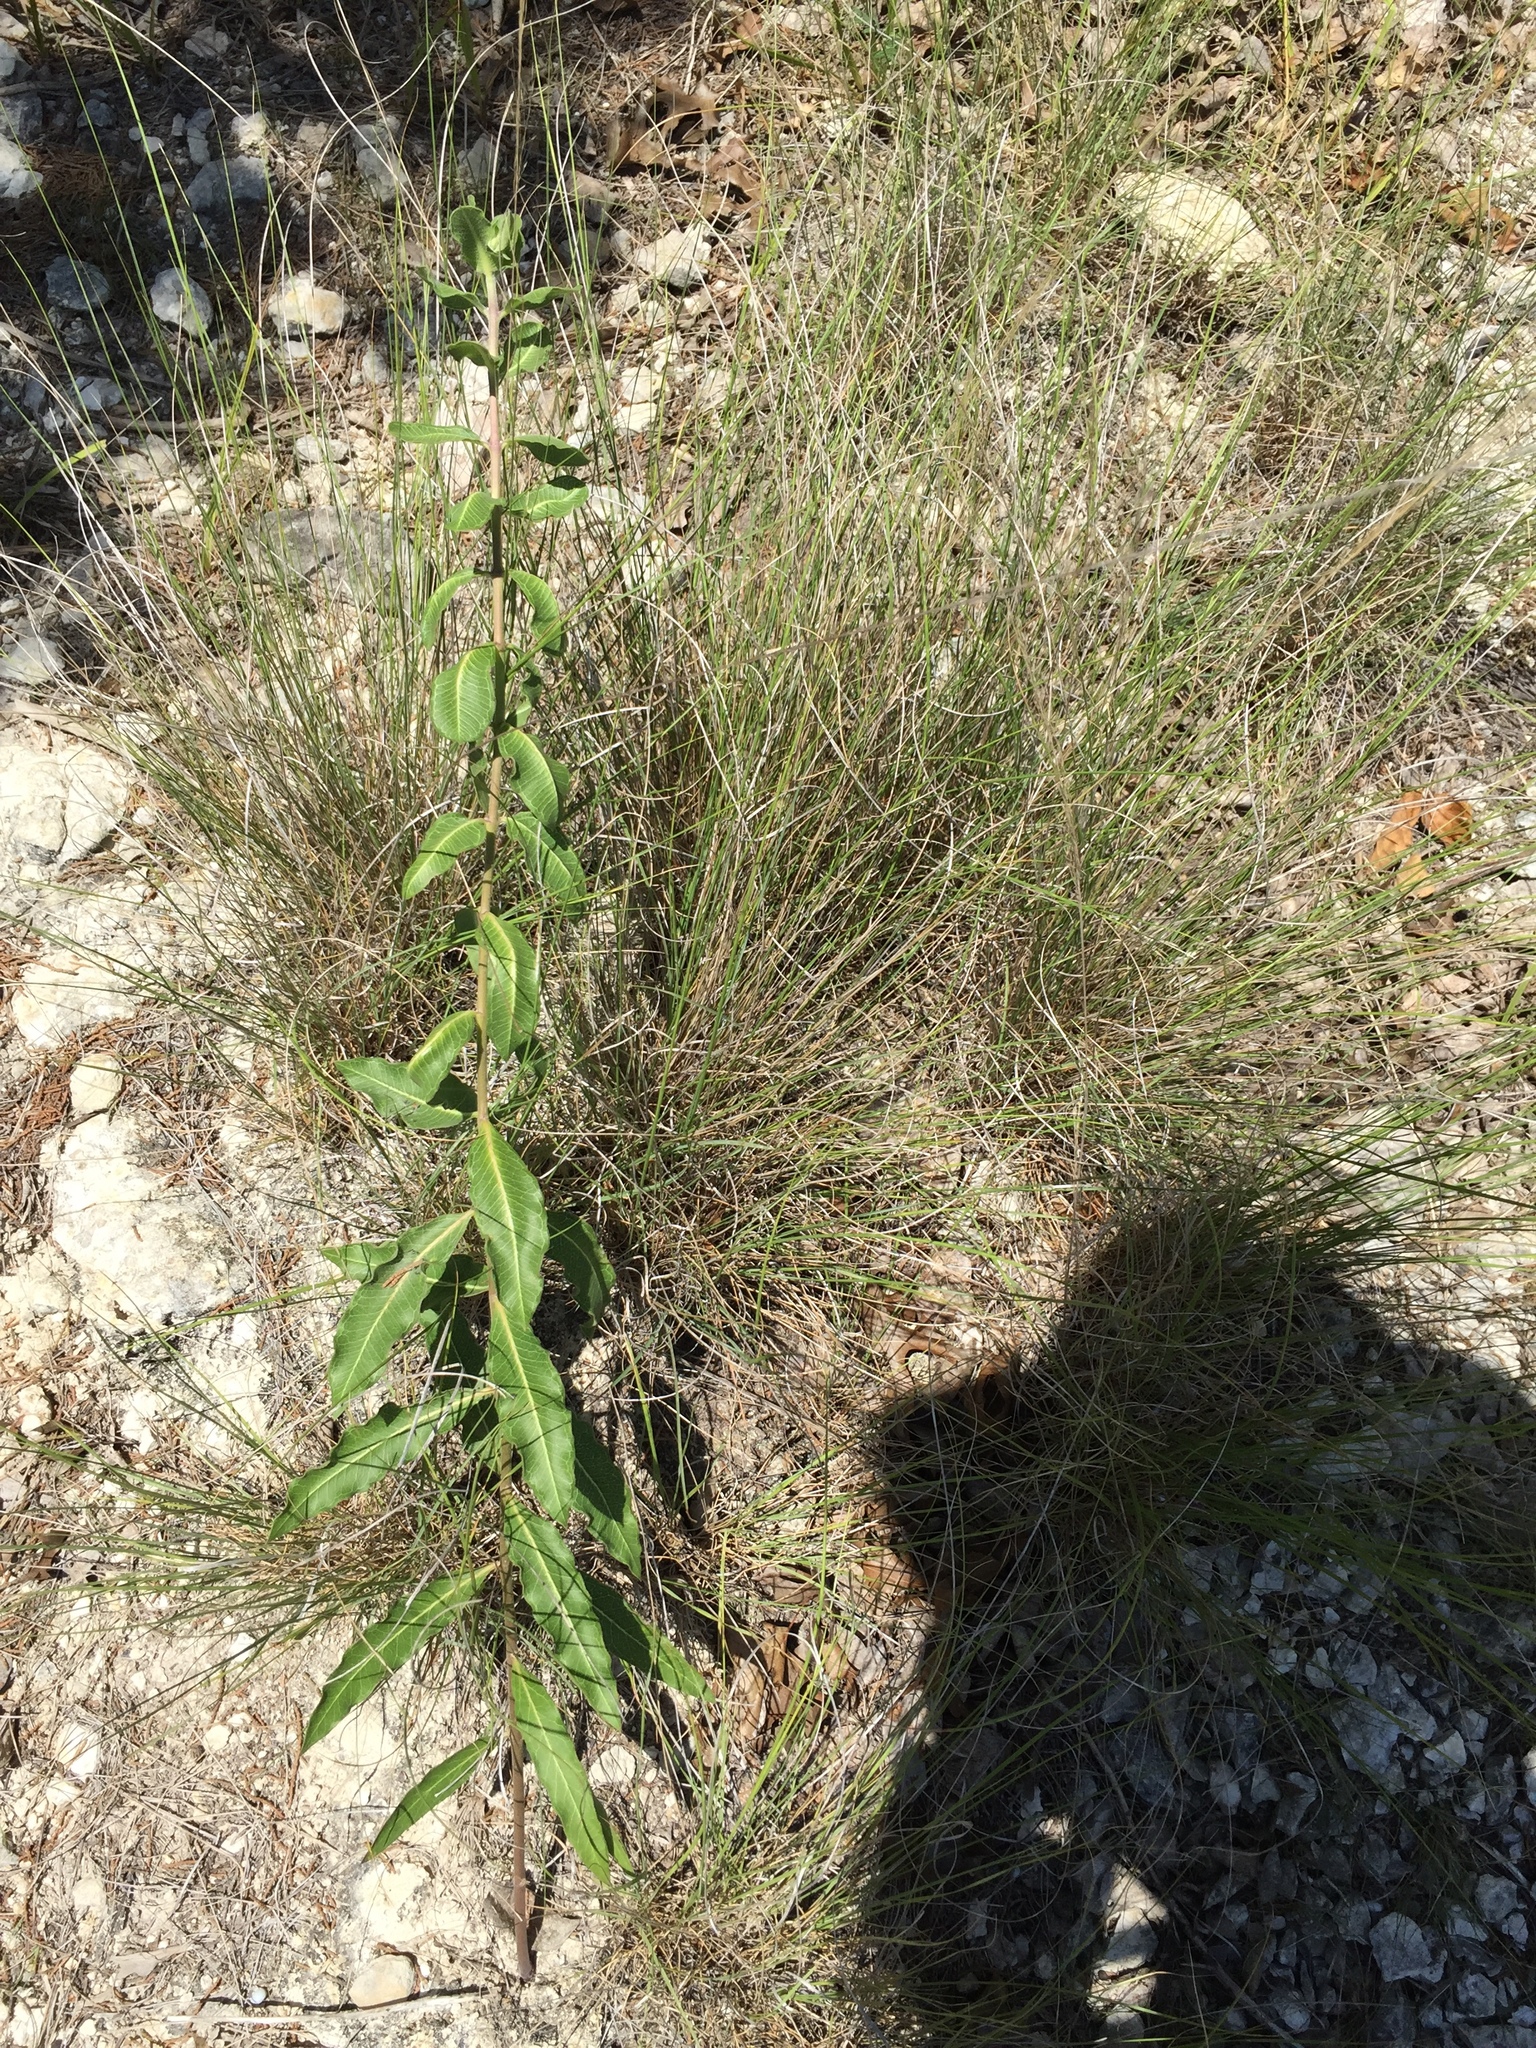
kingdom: Plantae
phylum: Tracheophyta
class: Magnoliopsida
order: Gentianales
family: Apocynaceae
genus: Asclepias
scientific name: Asclepias viridiflora
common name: Green comet milkweed
